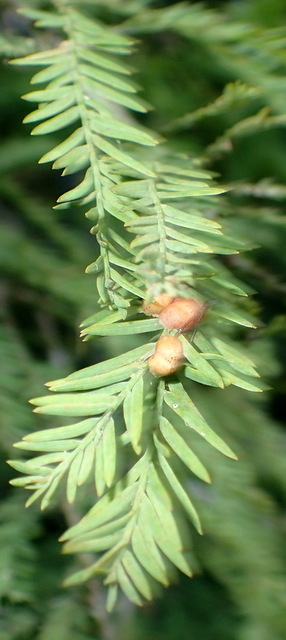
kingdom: Animalia
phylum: Arthropoda
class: Insecta
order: Diptera
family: Cecidomyiidae
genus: Taxodiomyia
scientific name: Taxodiomyia taxodii
